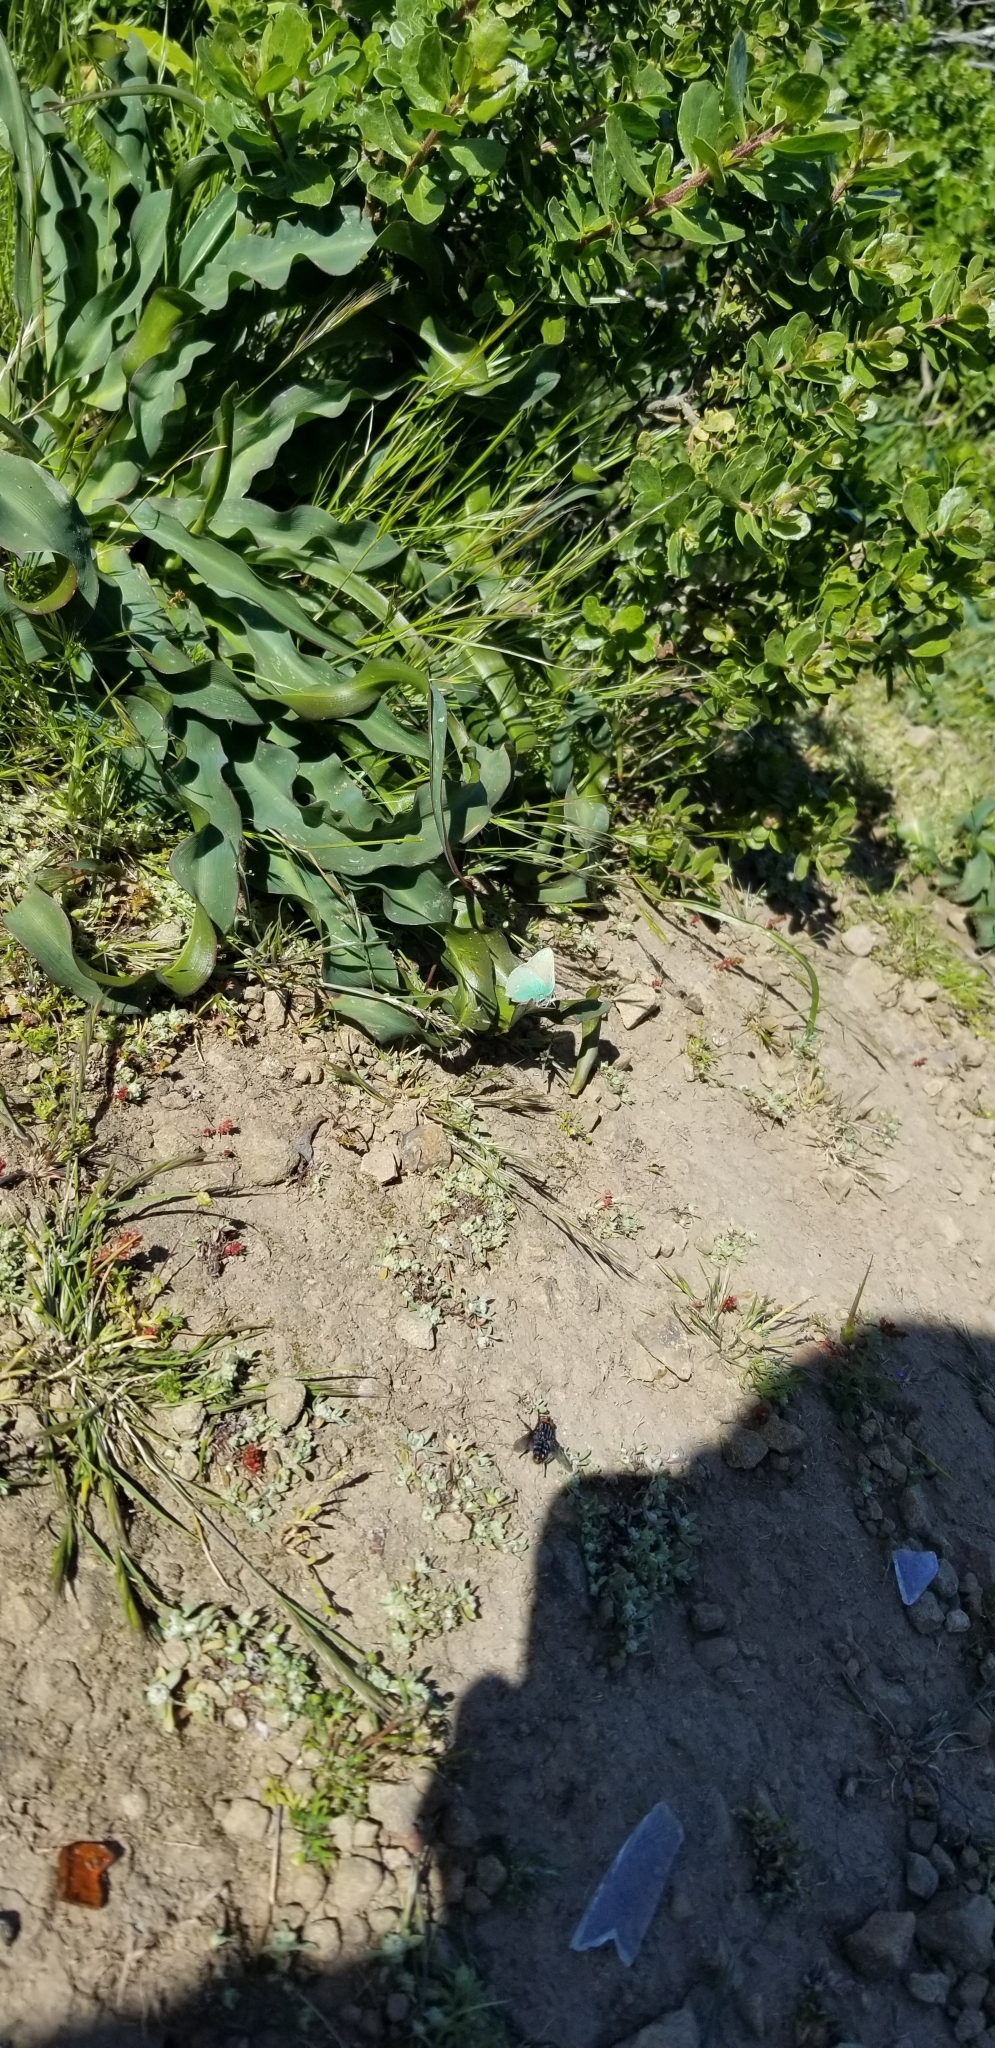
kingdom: Animalia
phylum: Arthropoda
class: Insecta
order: Lepidoptera
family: Lycaenidae
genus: Callophrys
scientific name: Callophrys viridis
